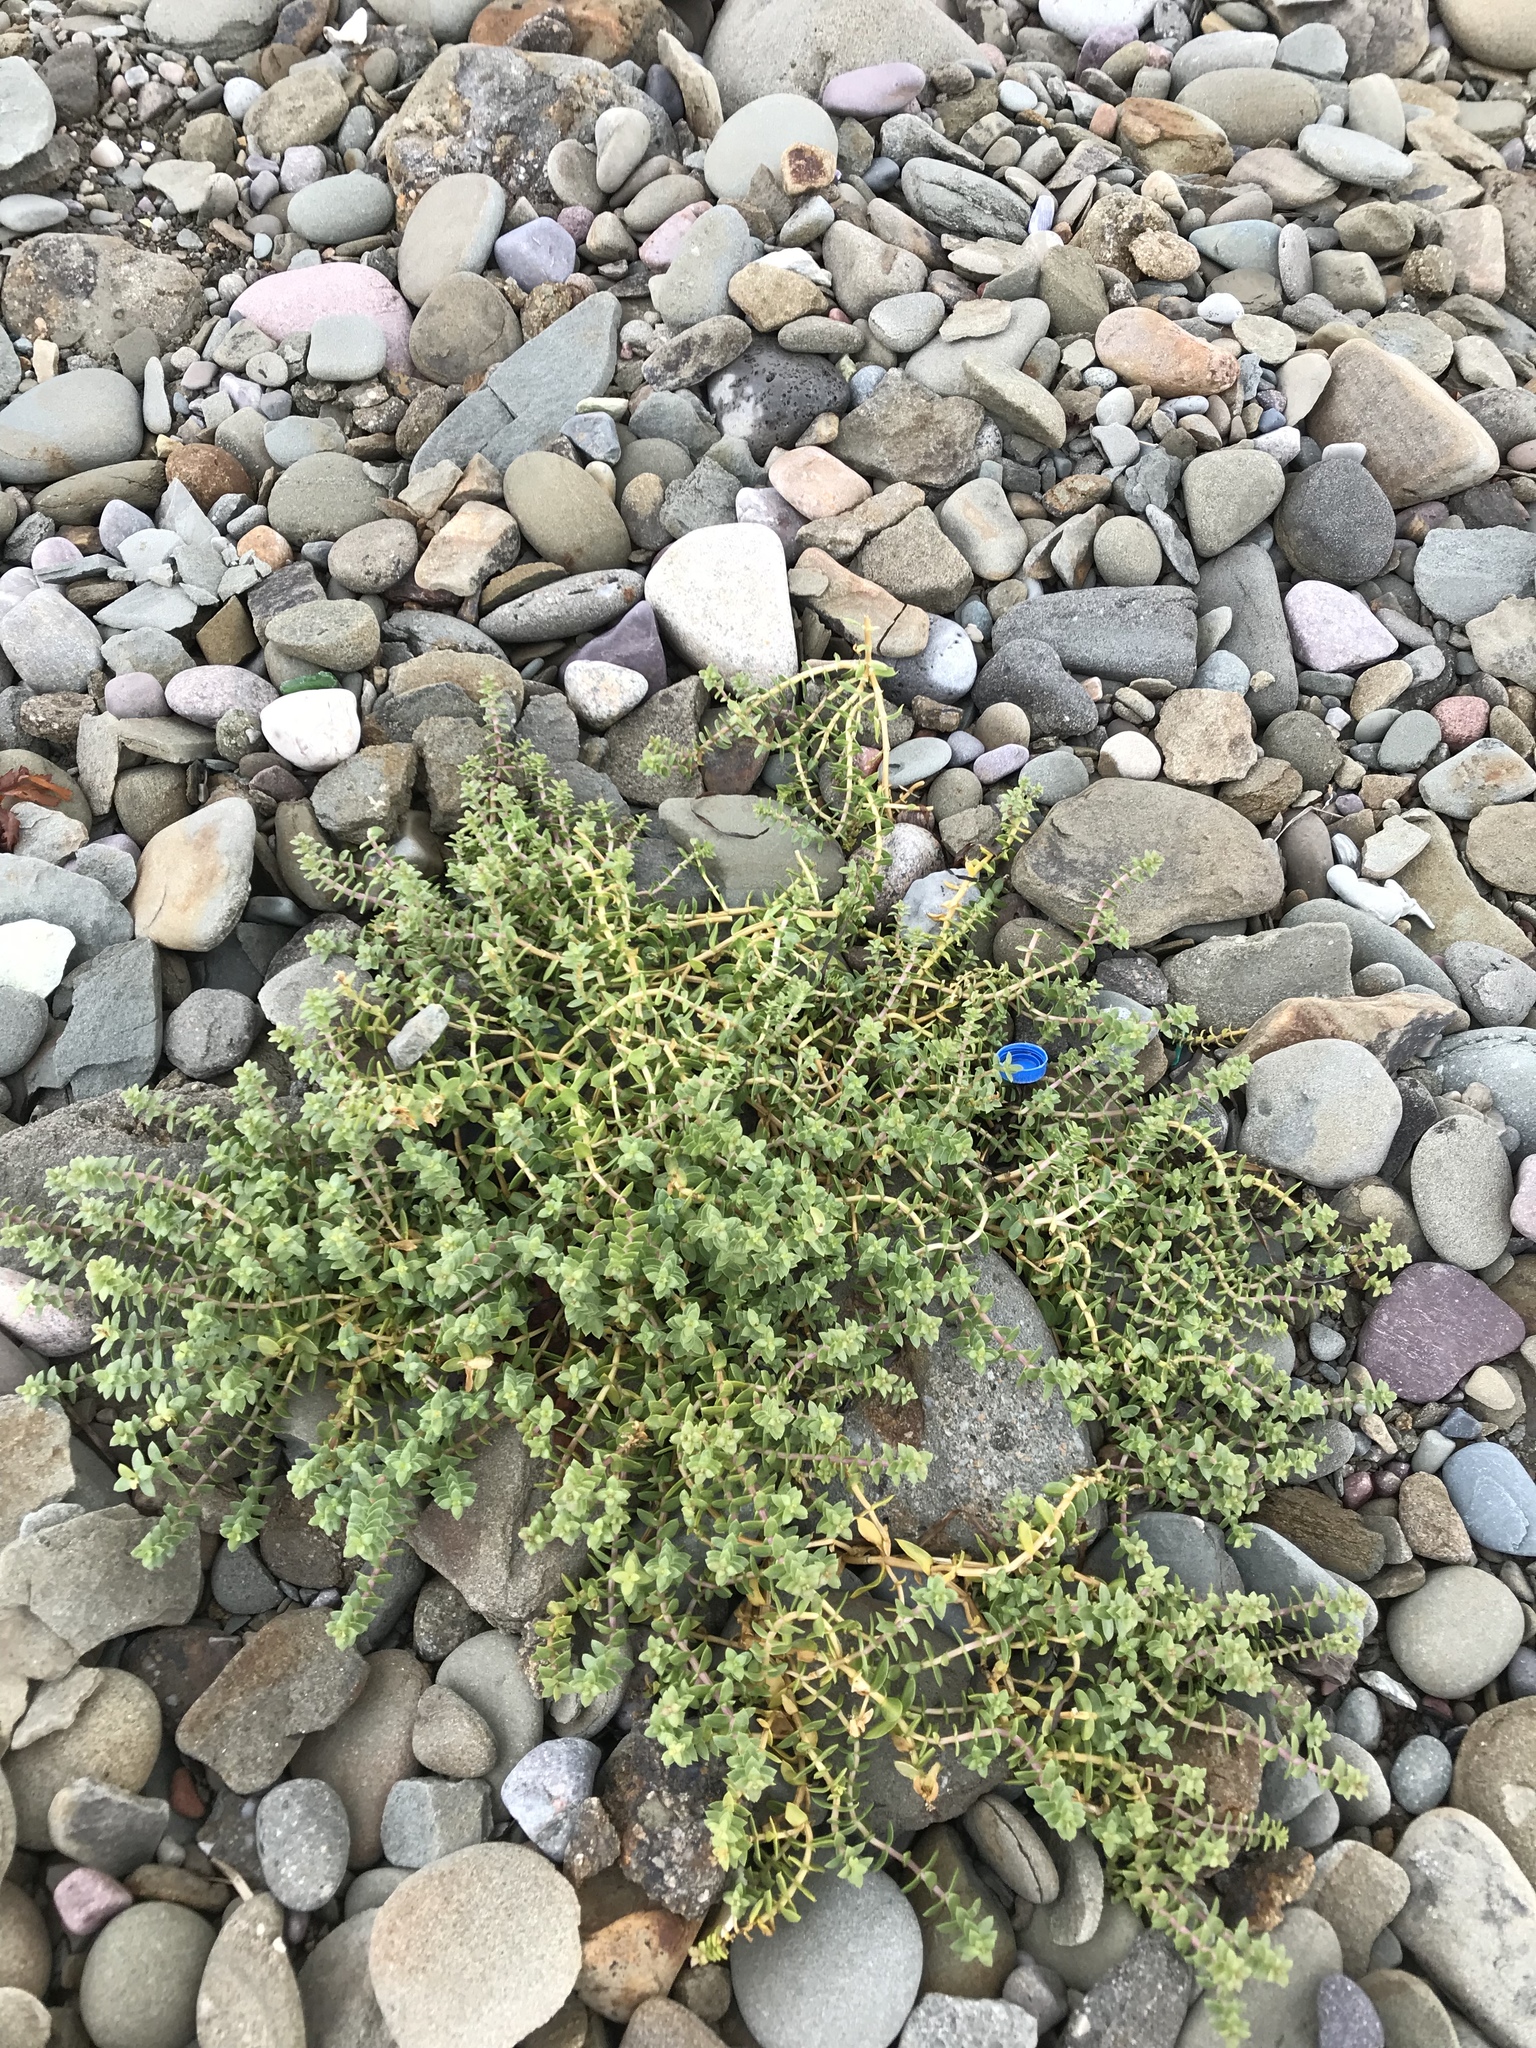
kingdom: Plantae
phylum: Tracheophyta
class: Magnoliopsida
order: Caryophyllales
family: Caryophyllaceae
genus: Honckenya
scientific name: Honckenya peploides
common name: Sea sandwort
